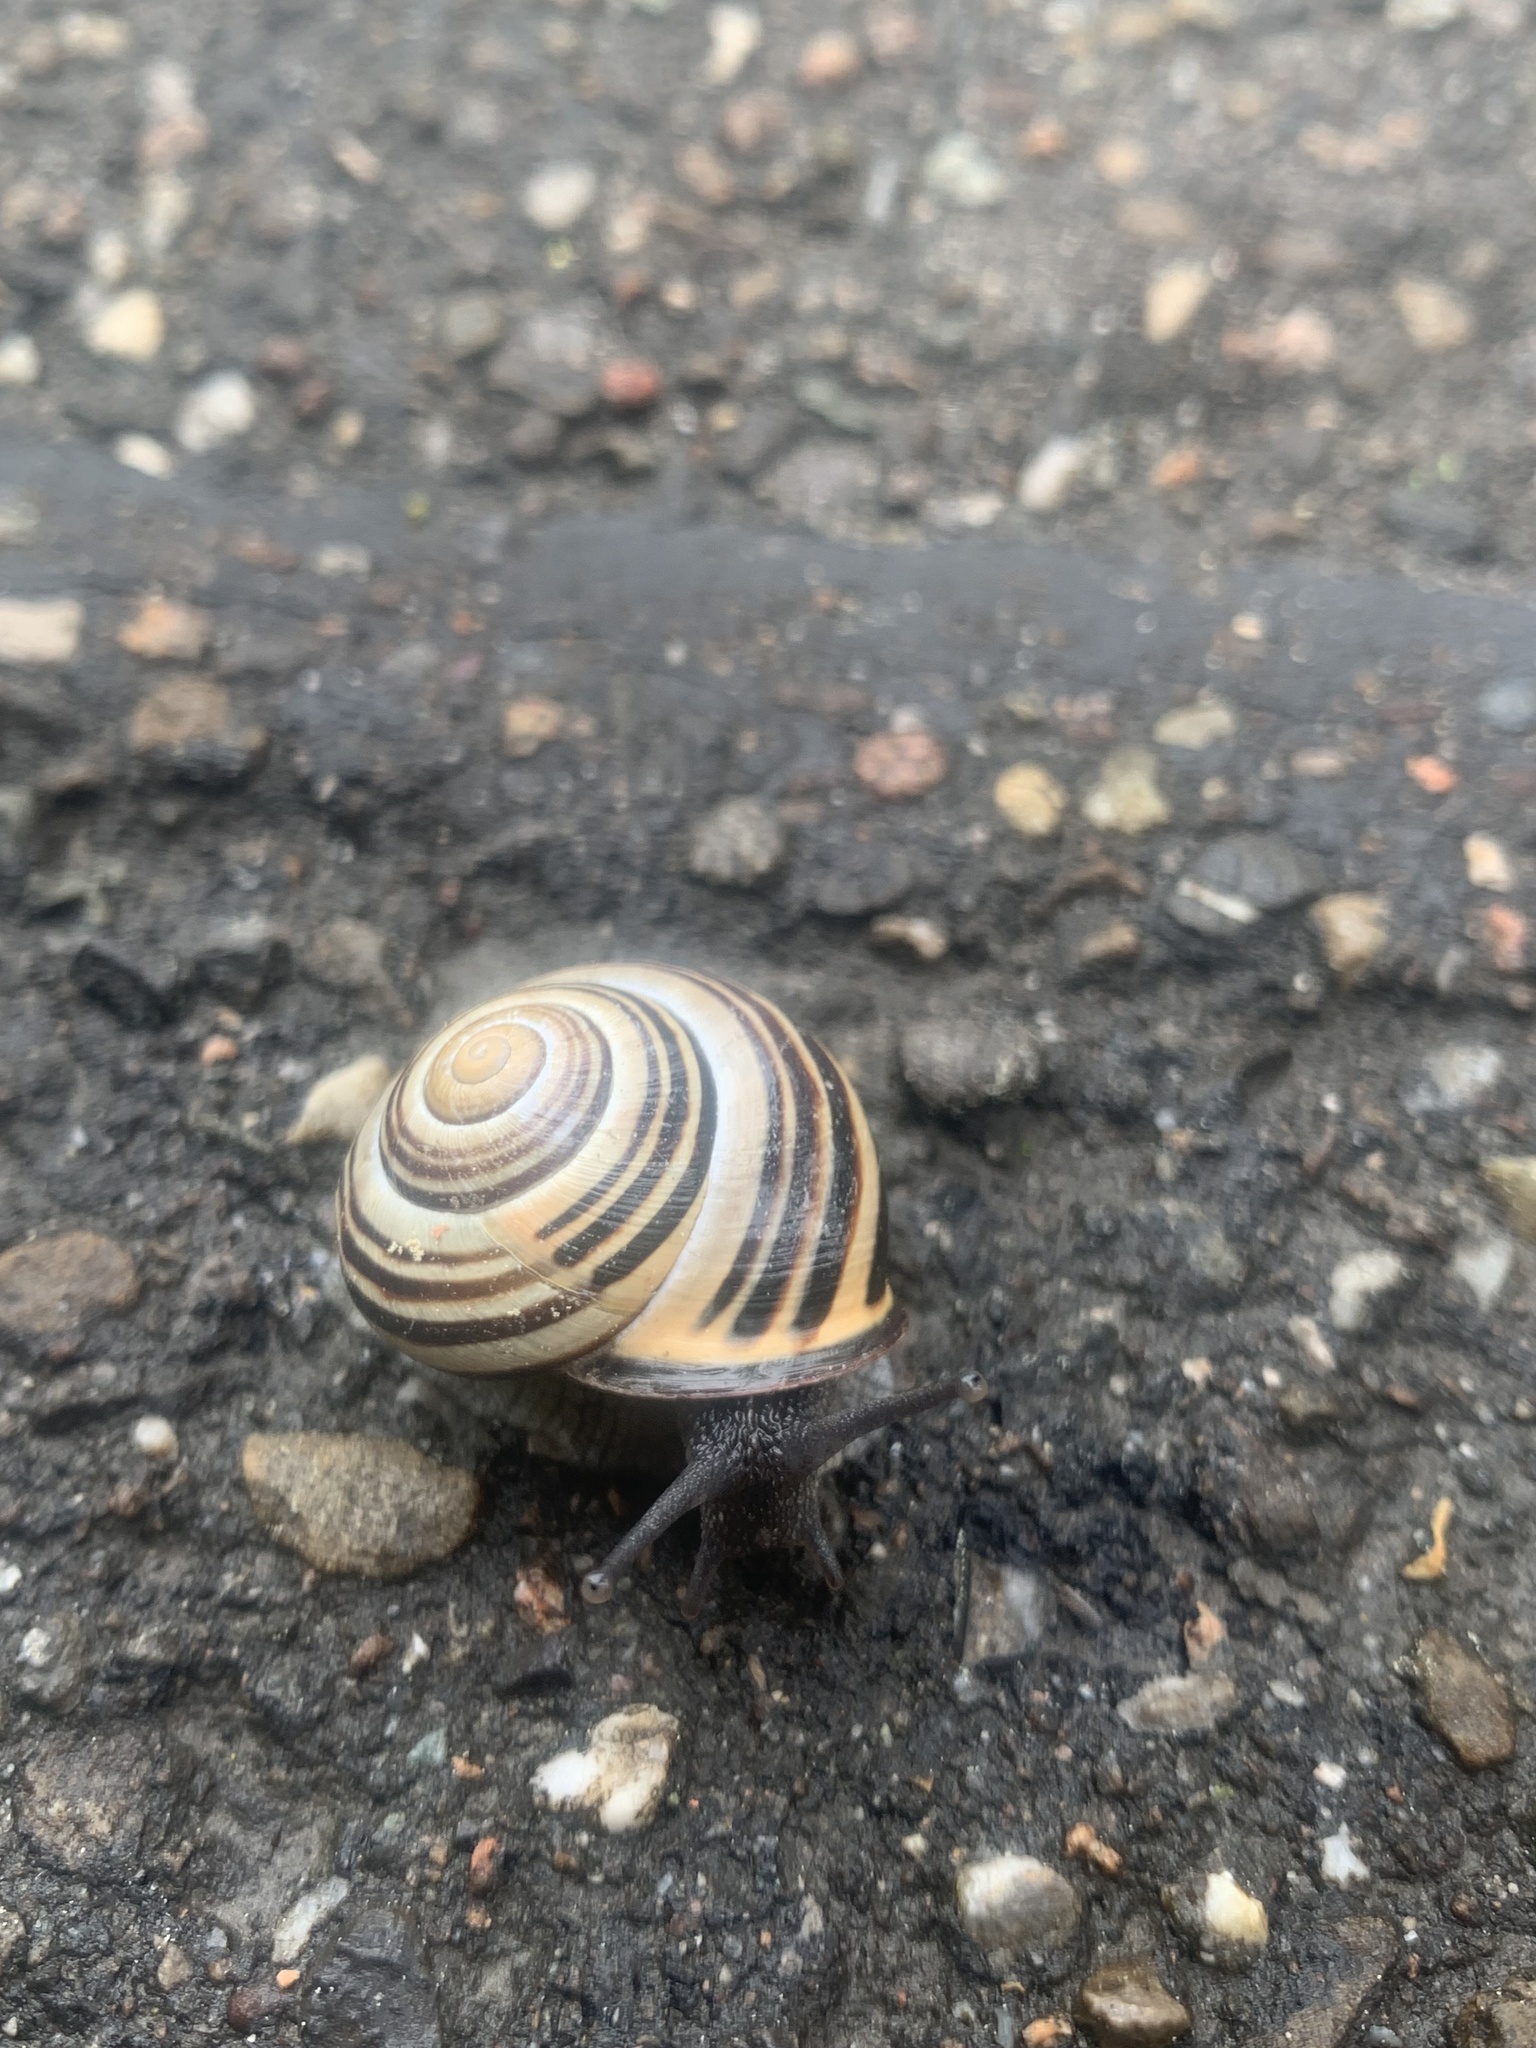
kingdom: Animalia
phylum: Mollusca
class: Gastropoda
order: Stylommatophora
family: Helicidae
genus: Cepaea
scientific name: Cepaea nemoralis
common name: Grovesnail
